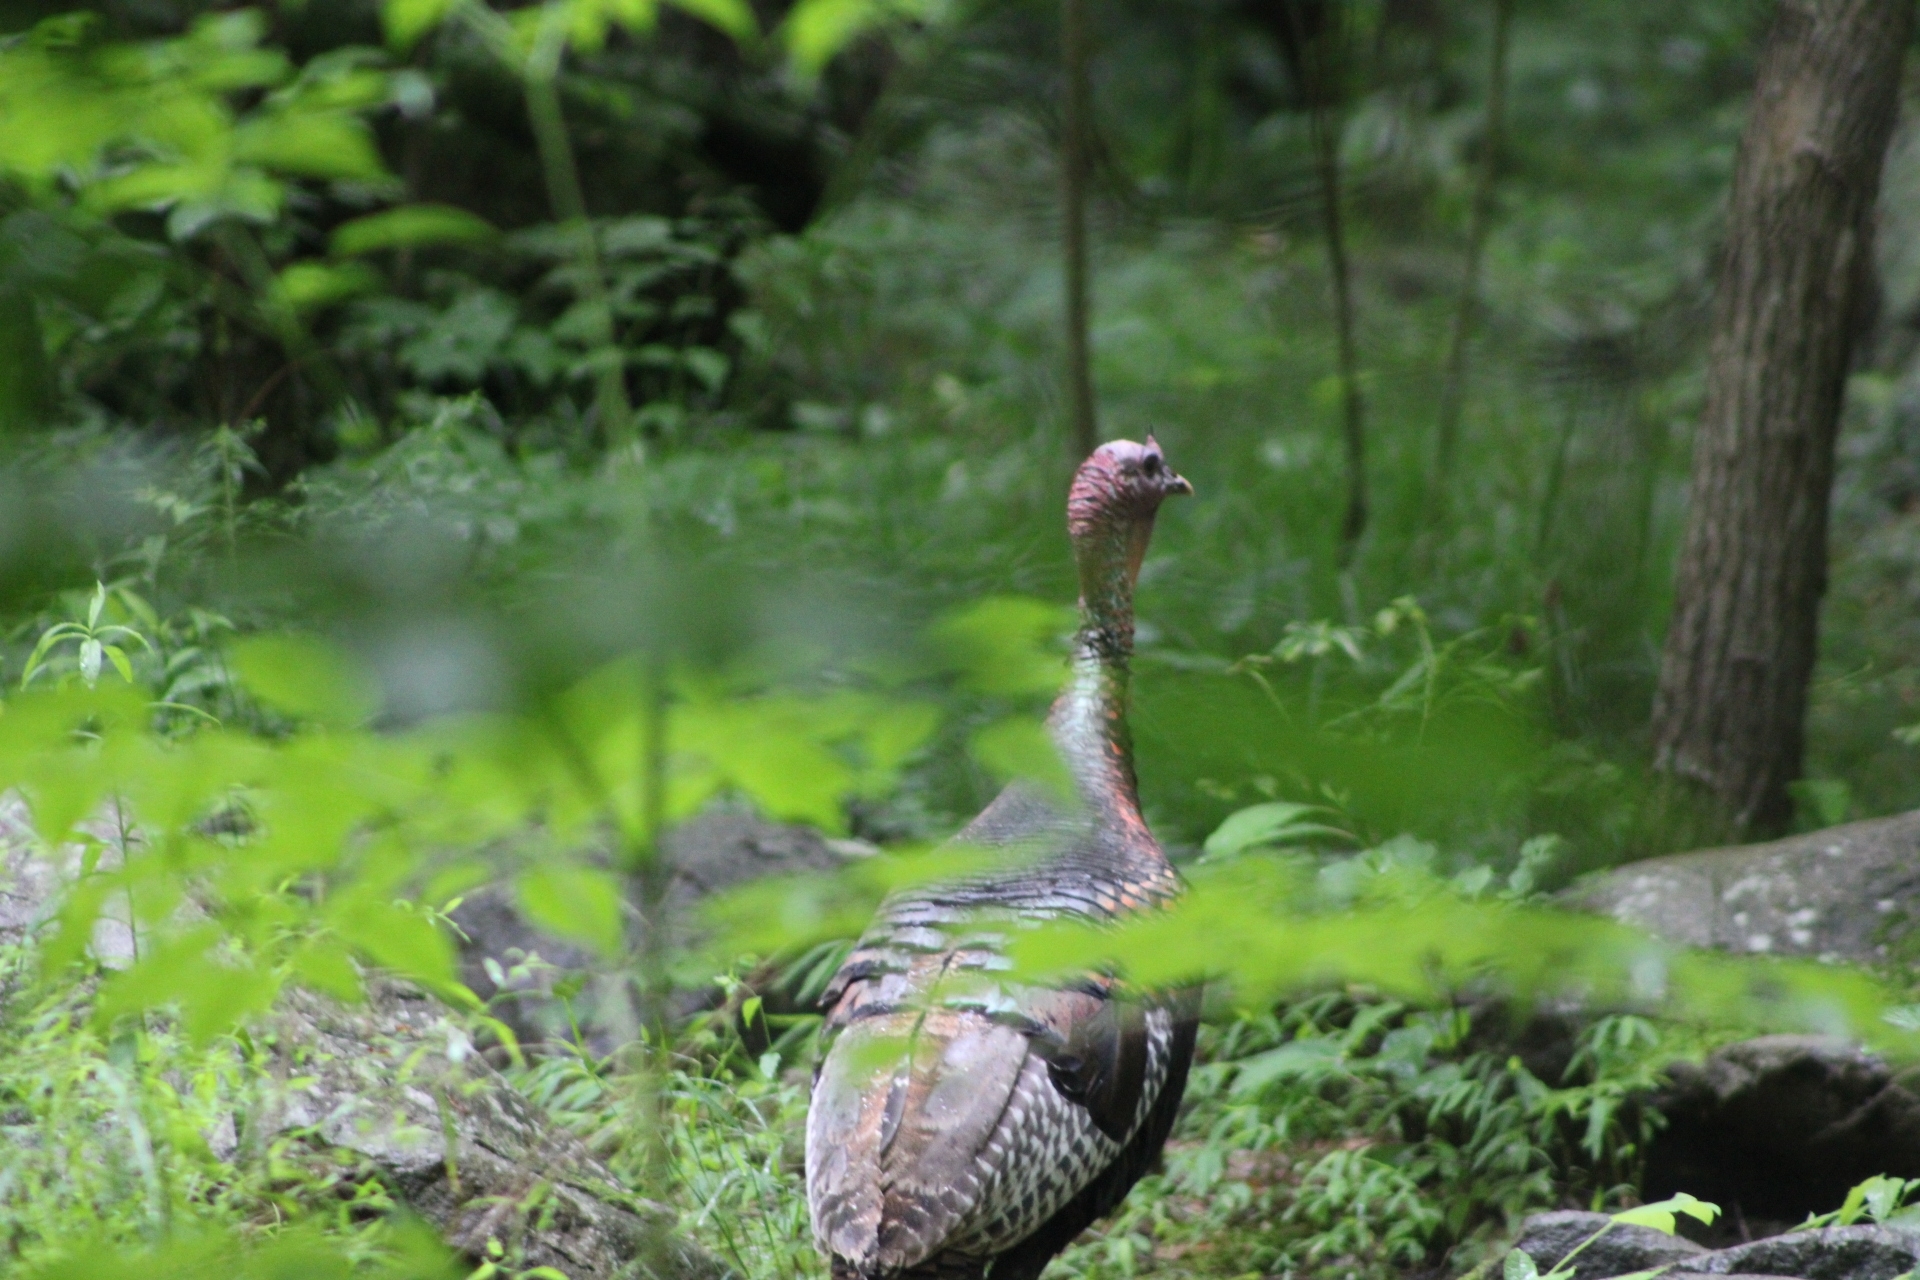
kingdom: Animalia
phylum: Chordata
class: Aves
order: Galliformes
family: Phasianidae
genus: Meleagris
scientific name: Meleagris gallopavo
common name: Wild turkey
